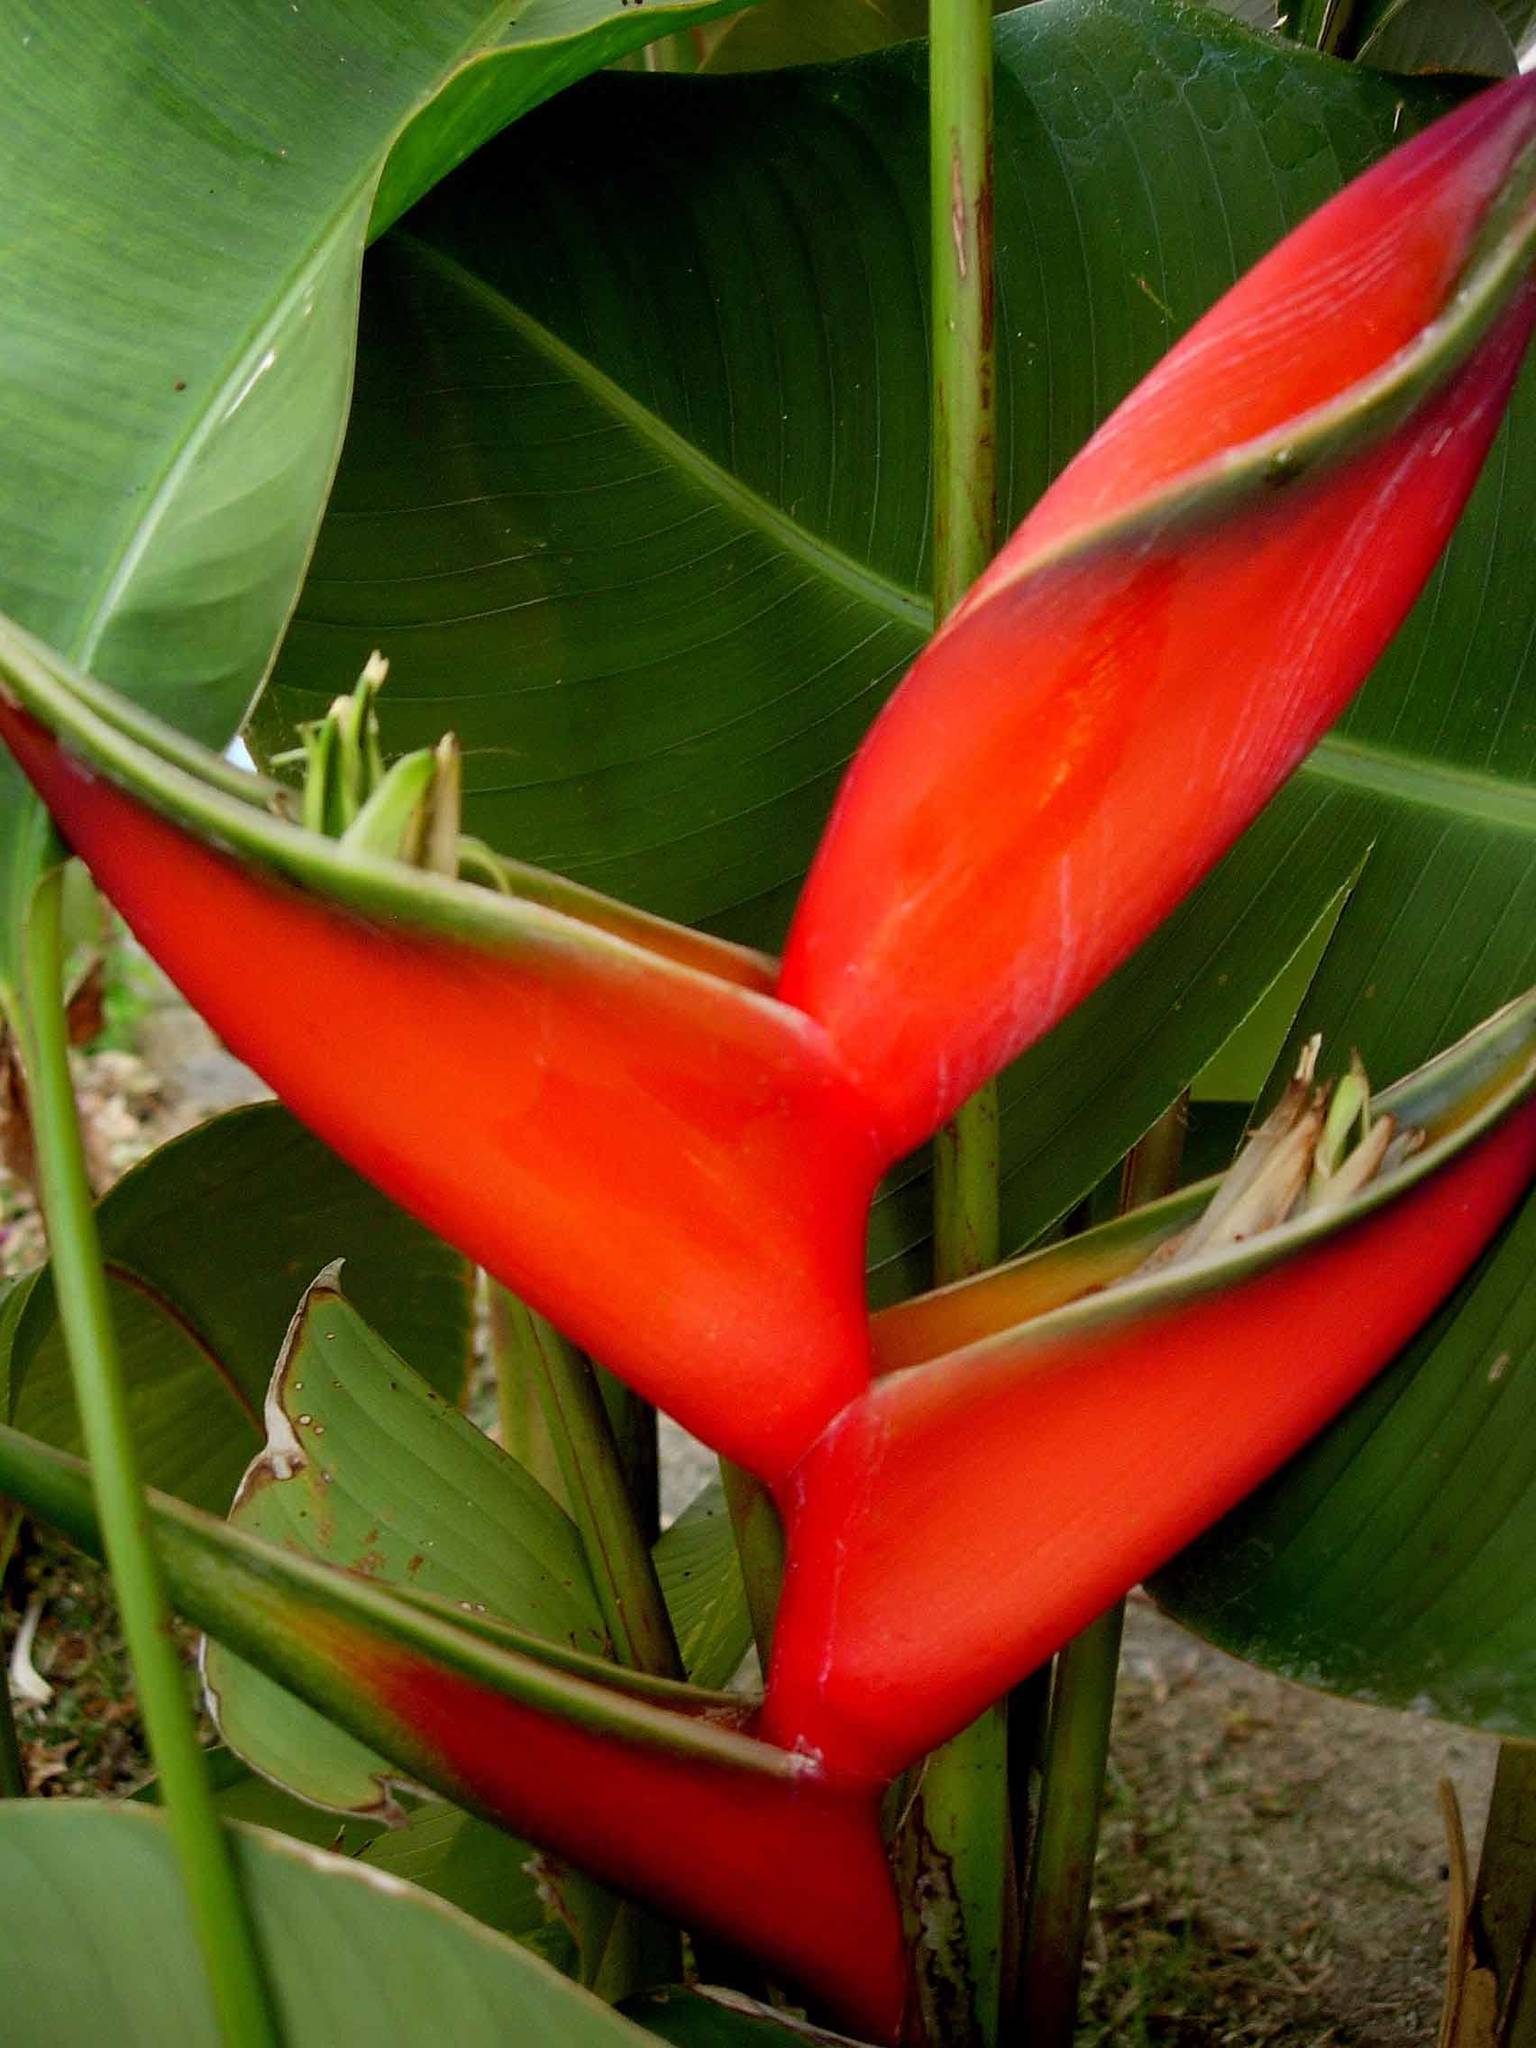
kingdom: Plantae
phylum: Tracheophyta
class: Liliopsida
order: Zingiberales
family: Heliconiaceae
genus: Heliconia
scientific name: Heliconia bihai
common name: Macaw flower
